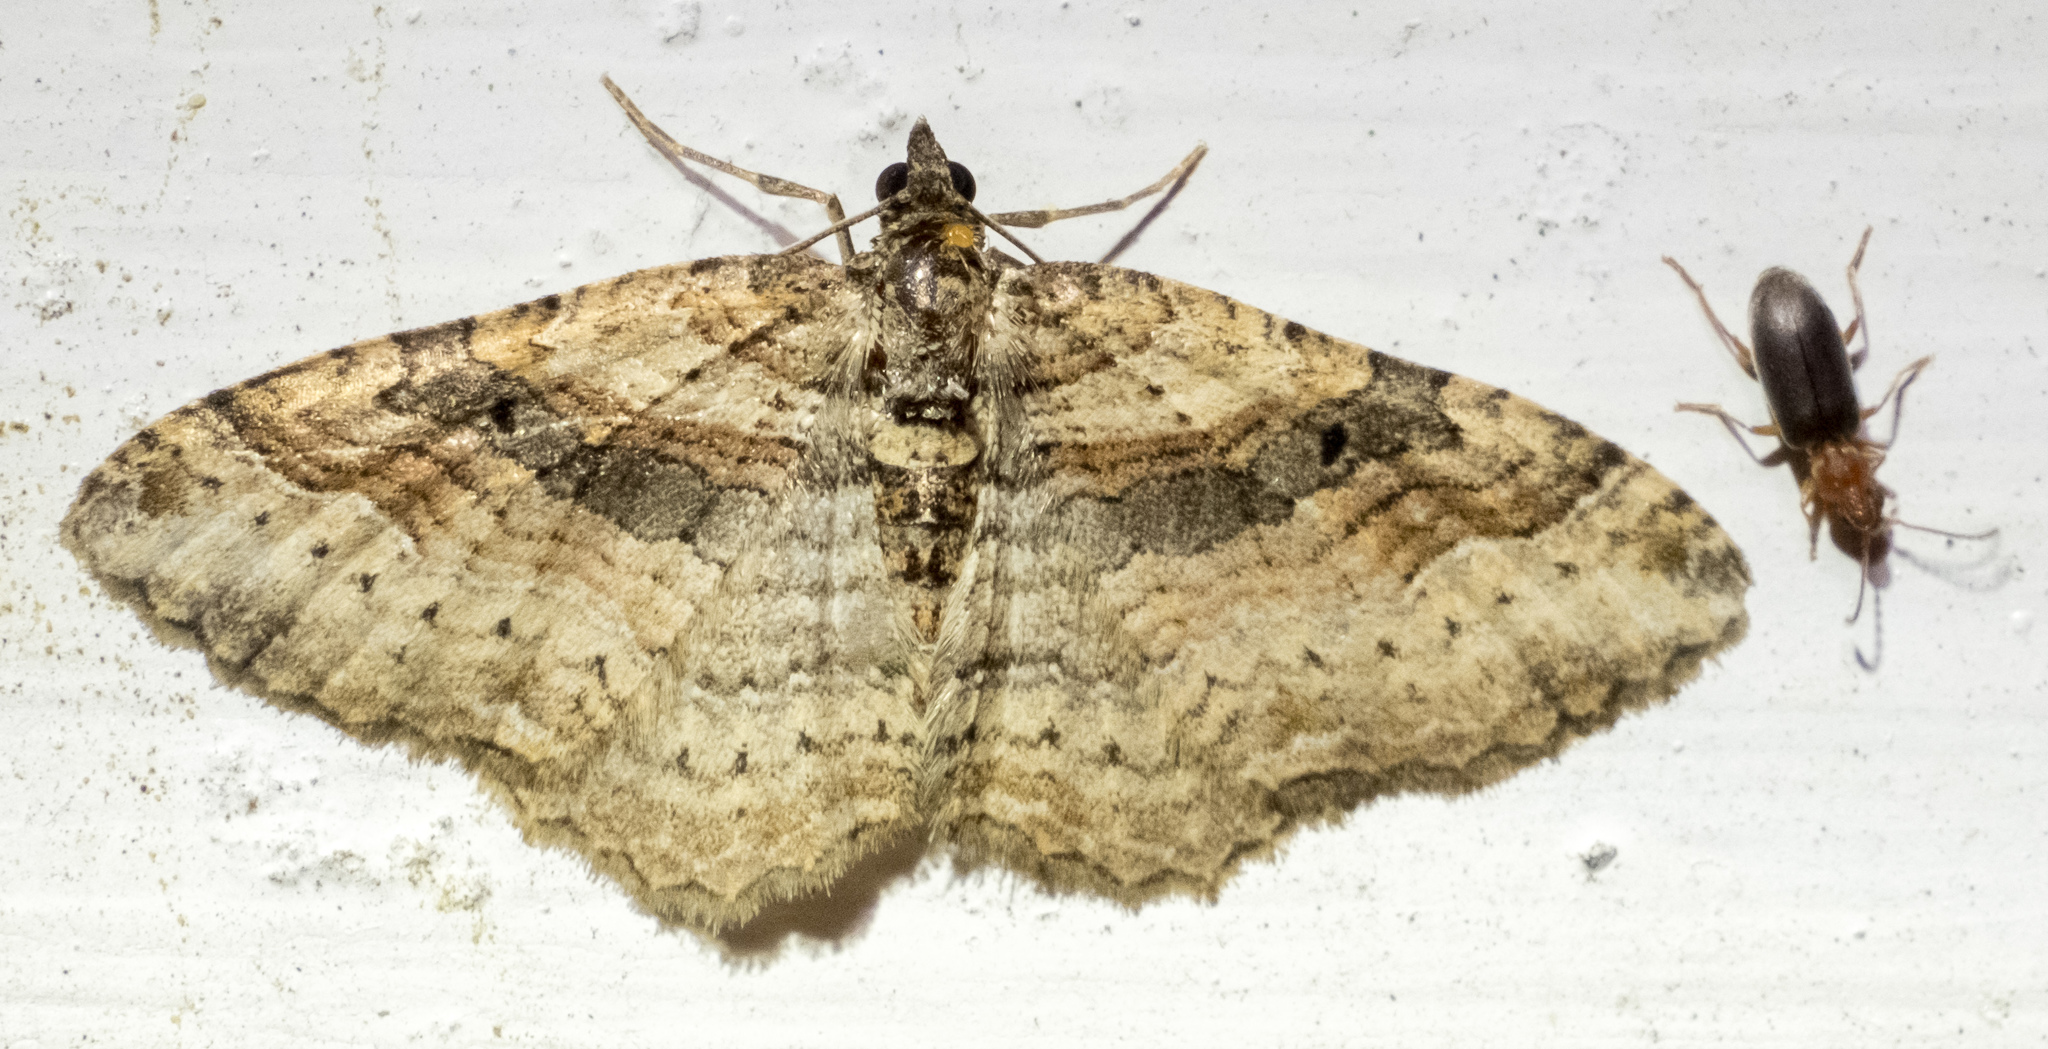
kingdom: Animalia
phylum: Arthropoda
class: Insecta
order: Lepidoptera
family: Geometridae
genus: Costaconvexa
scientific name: Costaconvexa centrostrigaria
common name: Bent-line carpet
